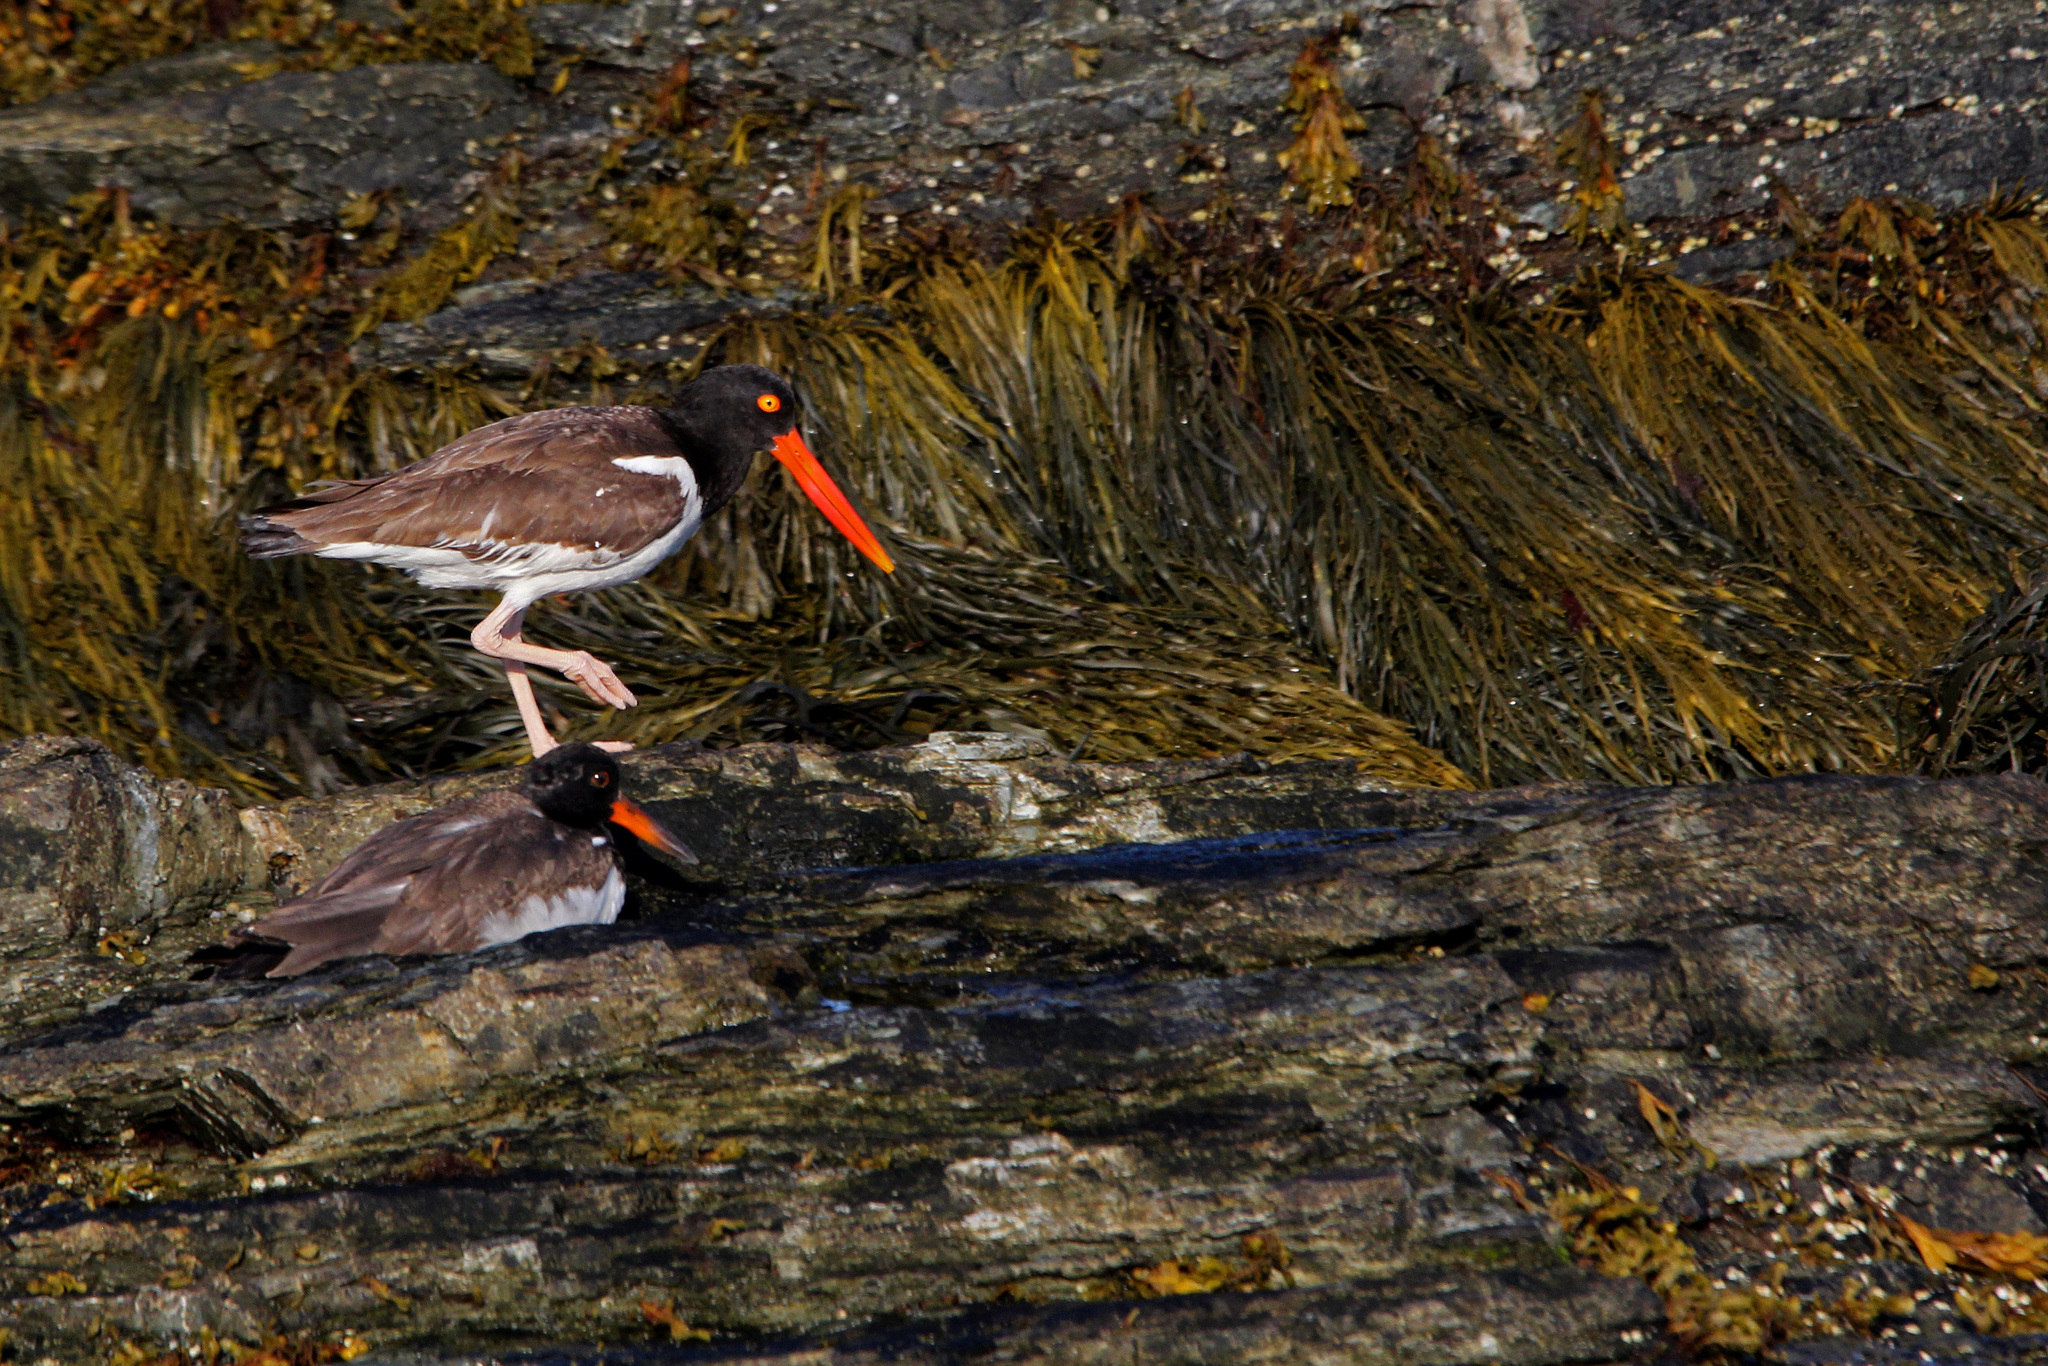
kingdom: Animalia
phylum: Chordata
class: Aves
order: Charadriiformes
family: Haematopodidae
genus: Haematopus
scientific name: Haematopus palliatus
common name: American oystercatcher
